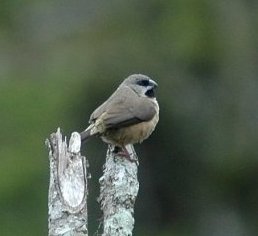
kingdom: Animalia
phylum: Chordata
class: Aves
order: Passeriformes
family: Estrildidae
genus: Lemuresthes
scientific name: Lemuresthes nana
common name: Madagascar mannikin
